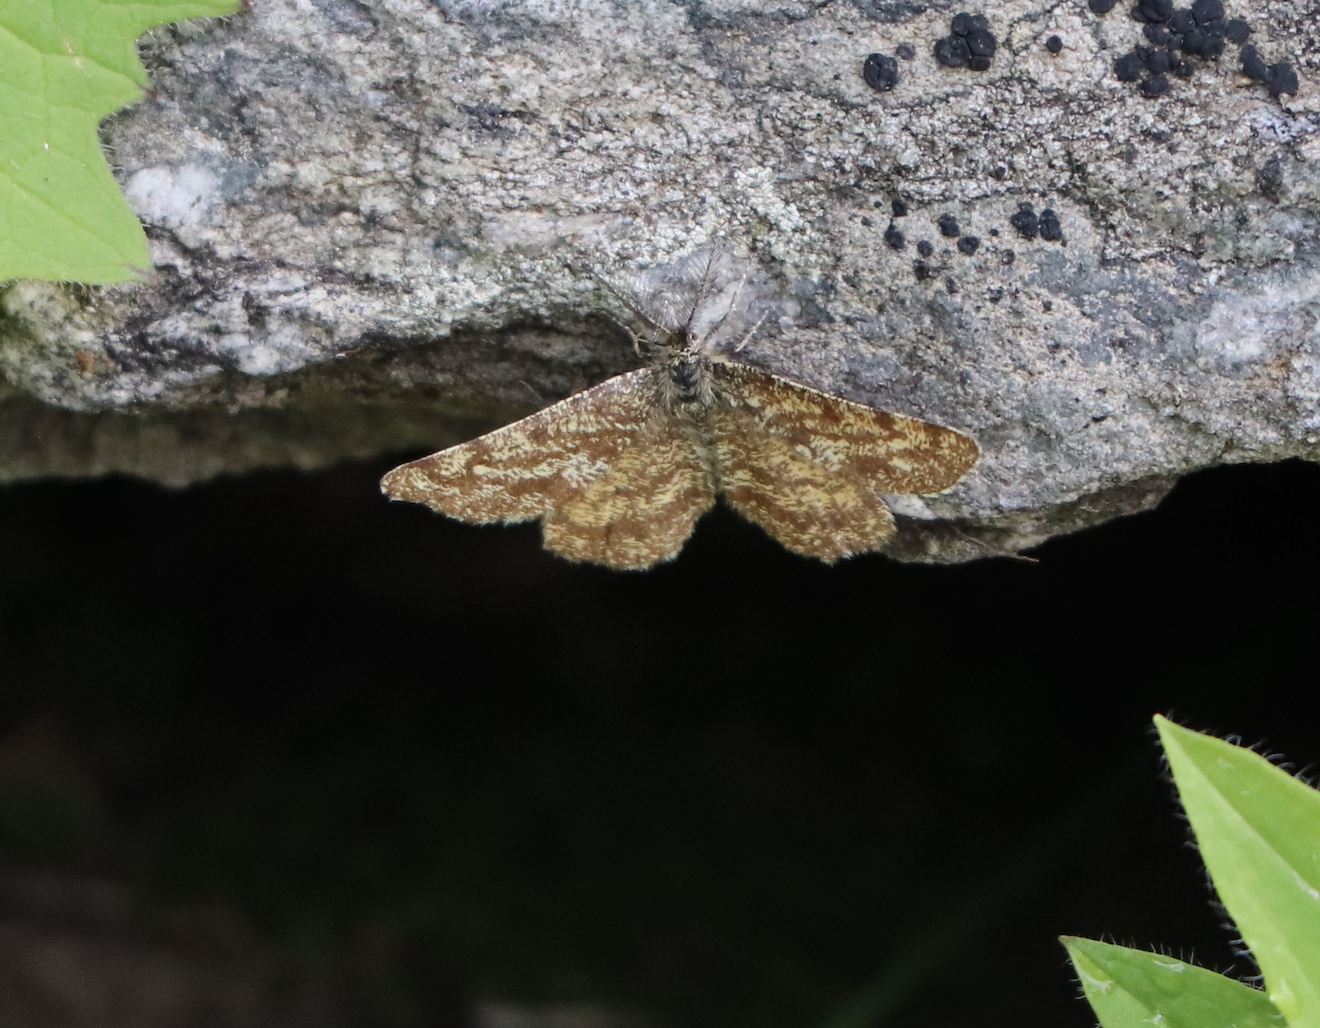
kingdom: Animalia
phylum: Arthropoda
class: Insecta
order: Lepidoptera
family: Geometridae
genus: Ematurga
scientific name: Ematurga atomaria
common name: Common heath
